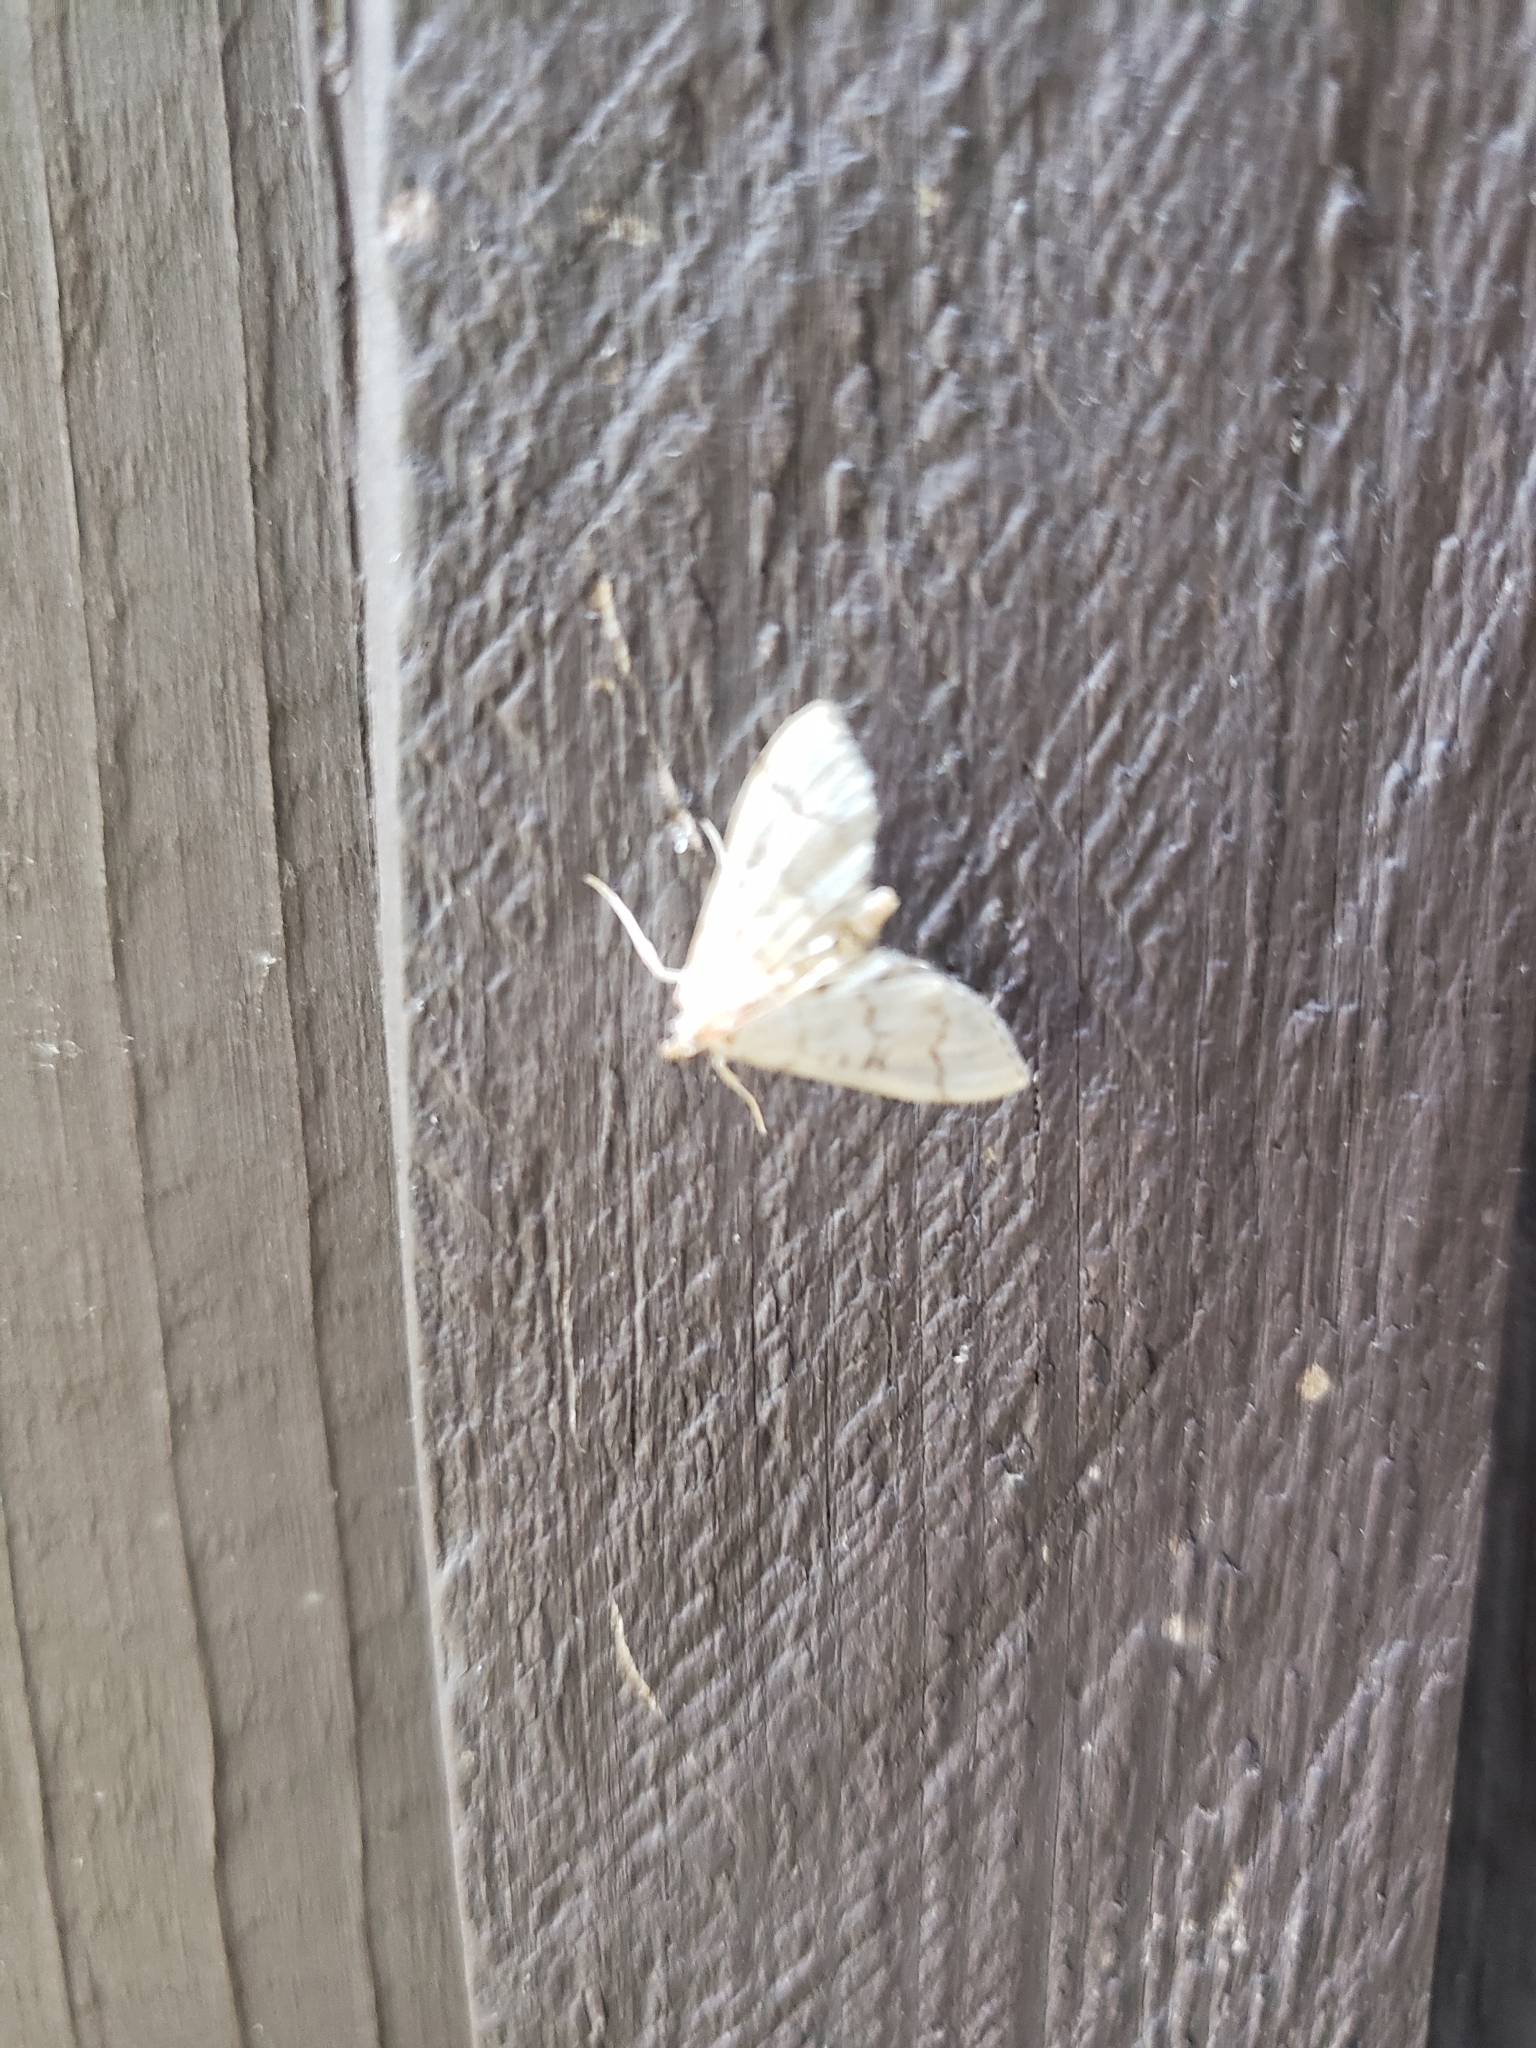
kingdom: Animalia
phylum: Arthropoda
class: Insecta
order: Lepidoptera
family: Crambidae
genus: Lamprosema
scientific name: Lamprosema Blepharomastix ranalis
